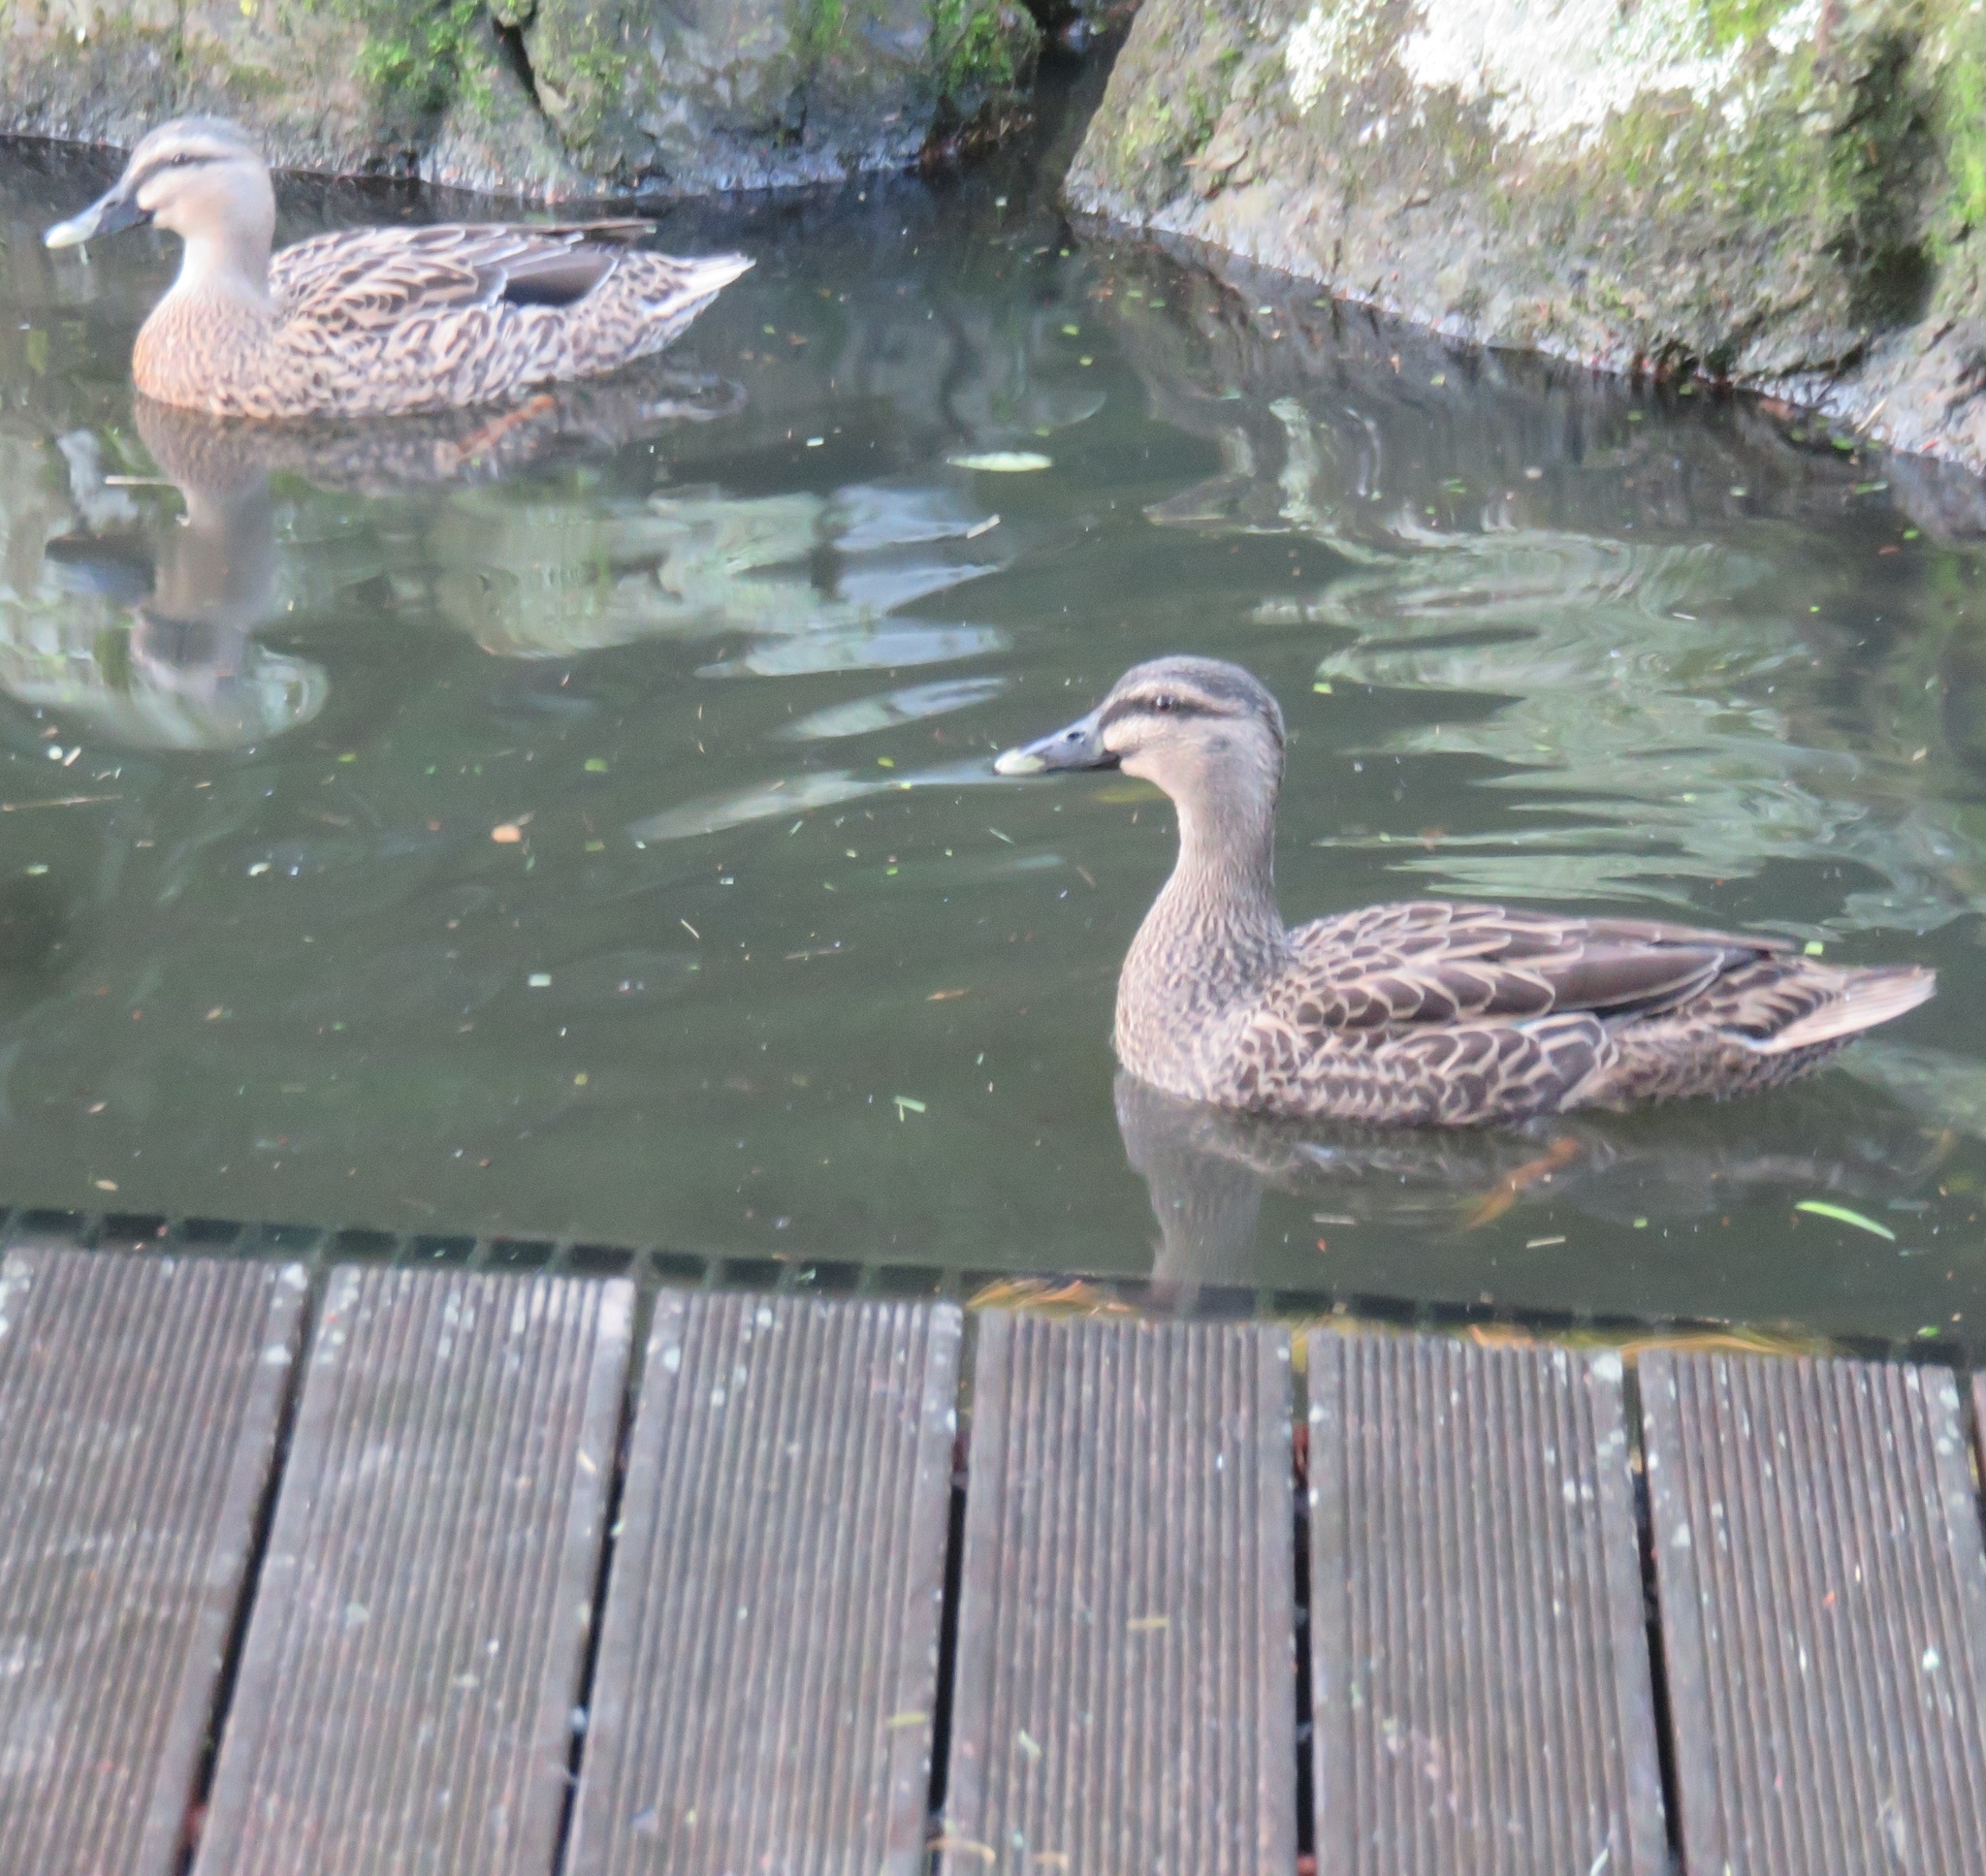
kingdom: Animalia
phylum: Chordata
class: Aves
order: Anseriformes
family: Anatidae
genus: Anas
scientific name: Anas
